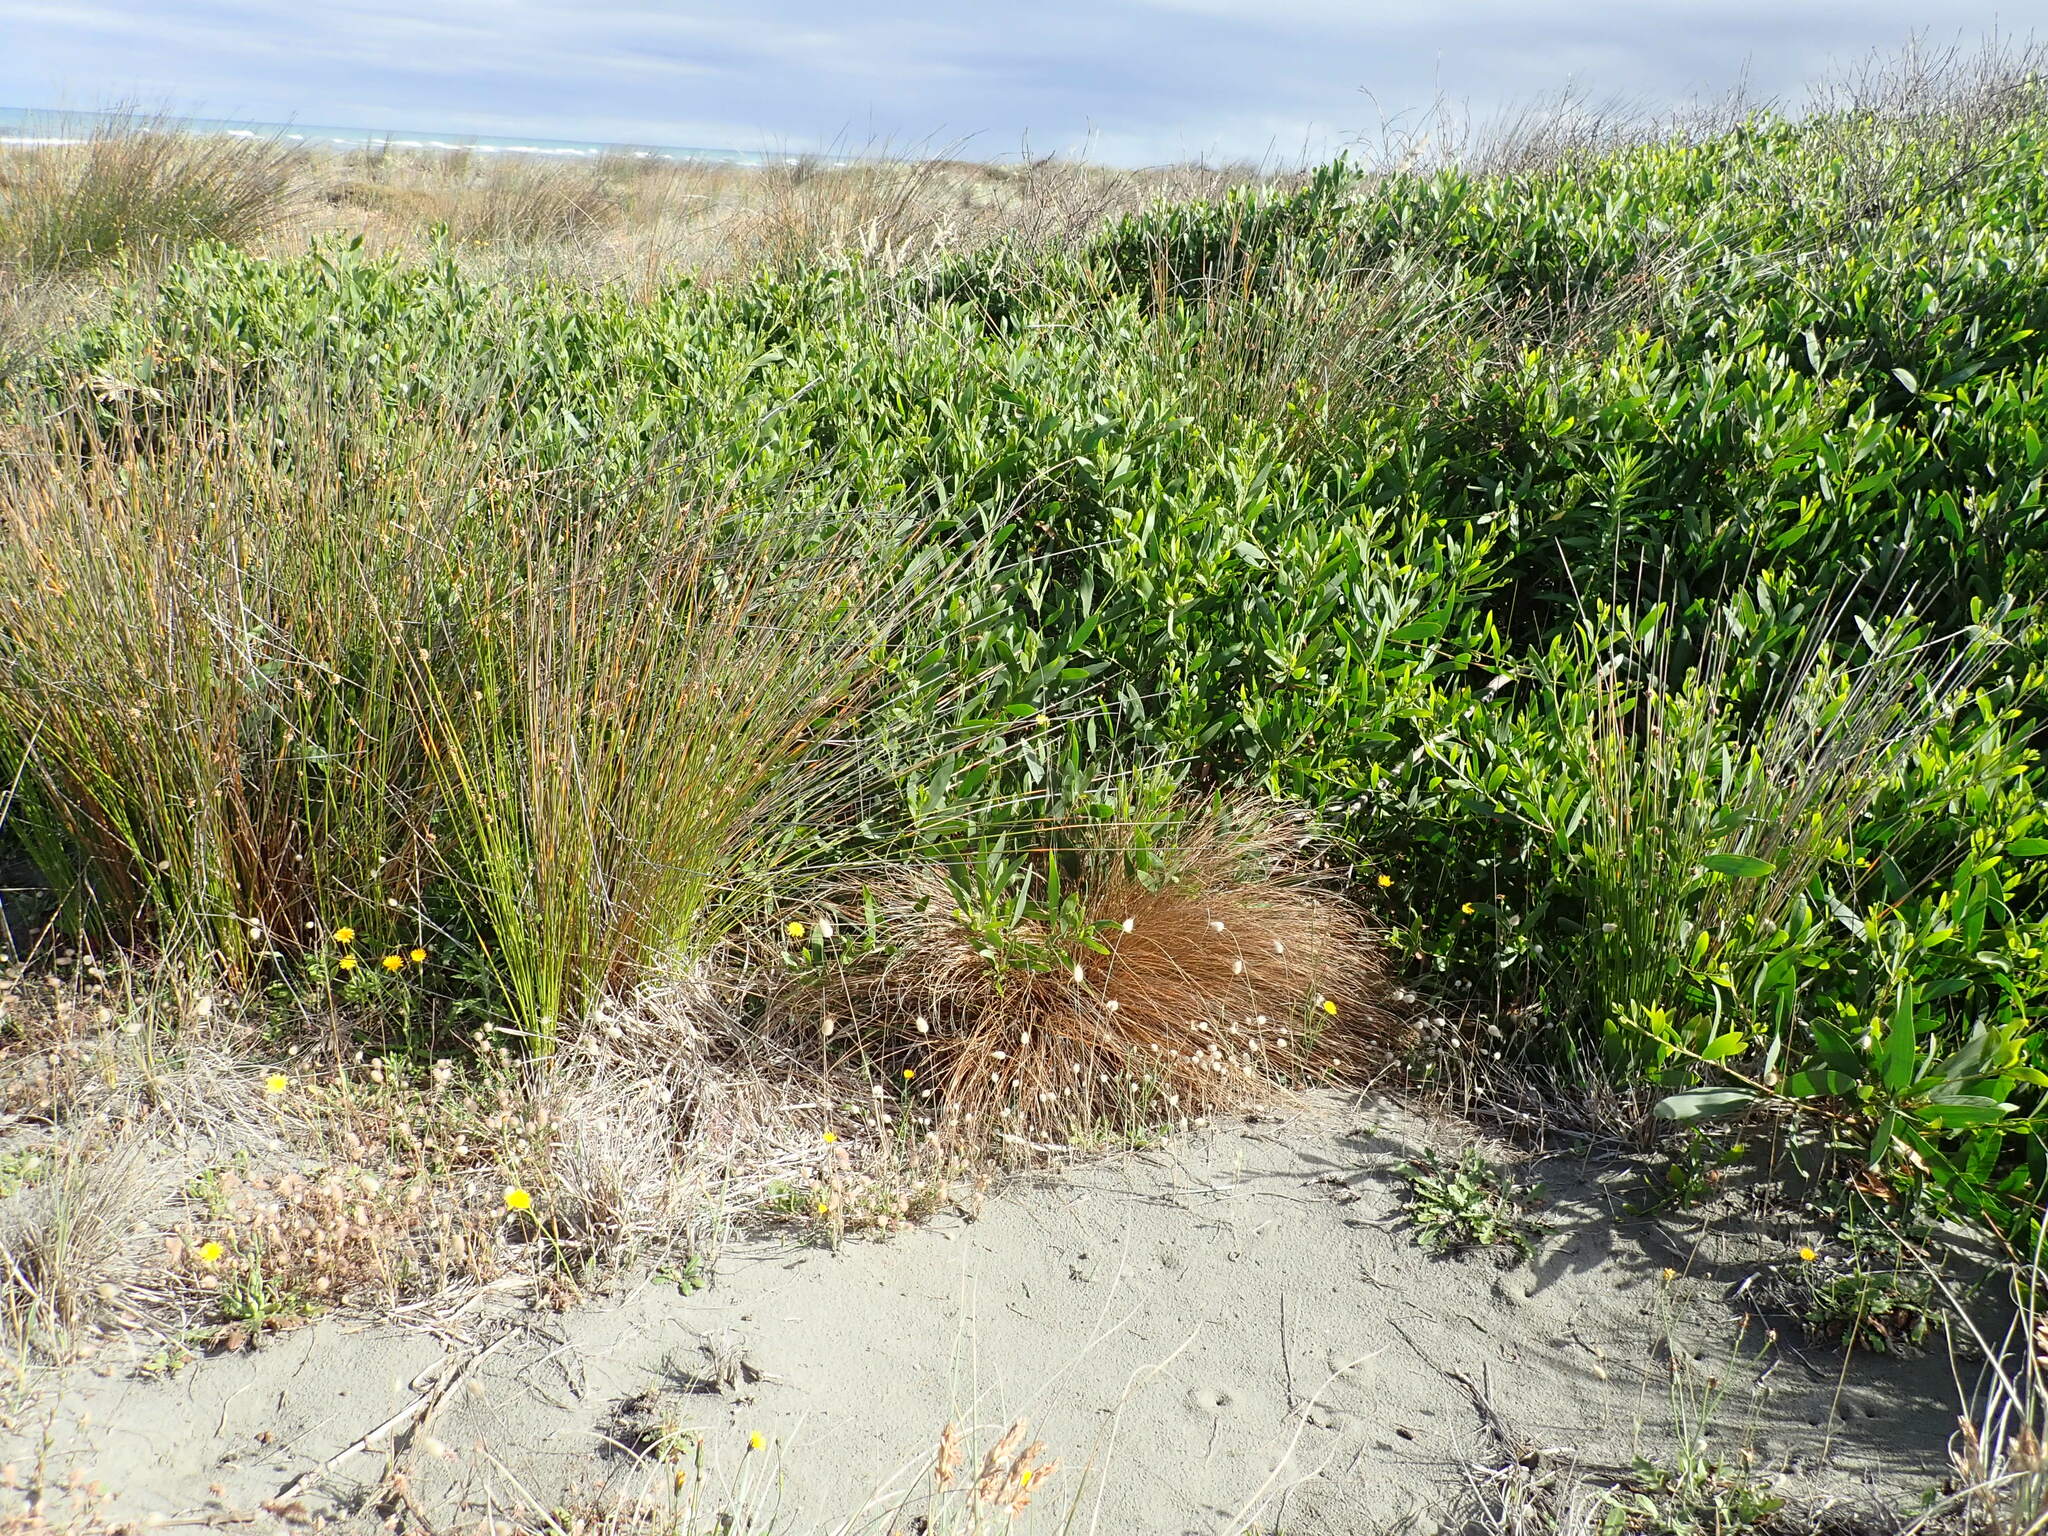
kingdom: Plantae
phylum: Tracheophyta
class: Liliopsida
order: Poales
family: Cyperaceae
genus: Carex
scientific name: Carex testacea
